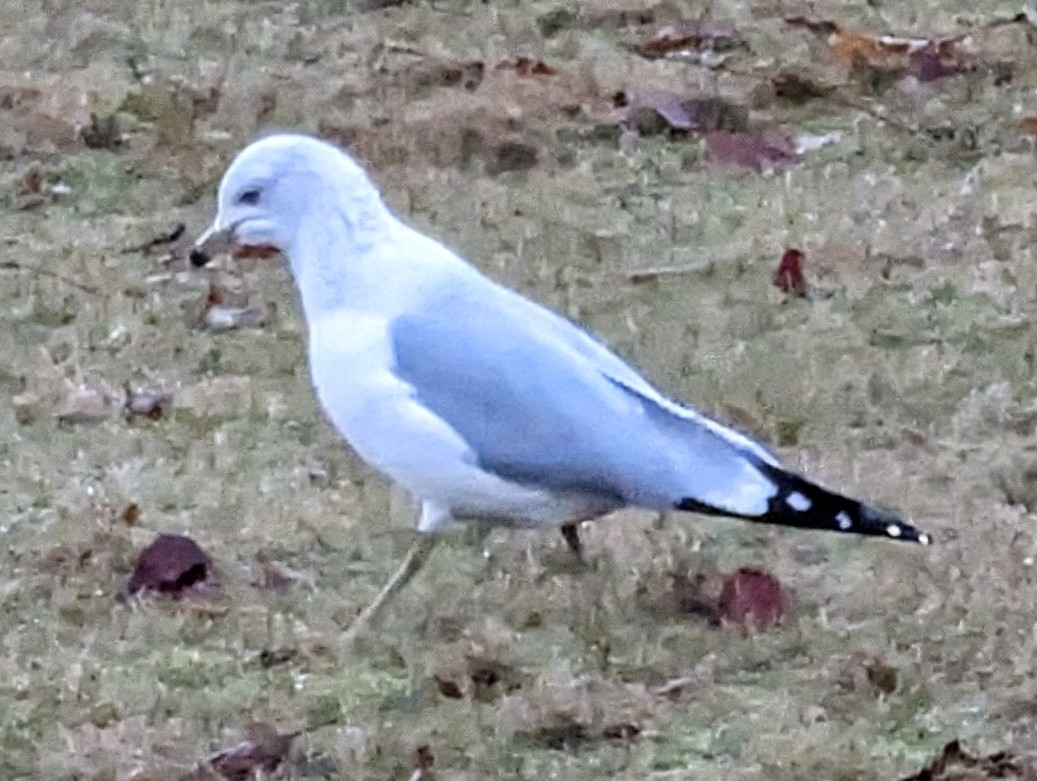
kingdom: Animalia
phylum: Chordata
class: Aves
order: Charadriiformes
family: Laridae
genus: Larus
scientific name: Larus delawarensis
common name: Ring-billed gull
